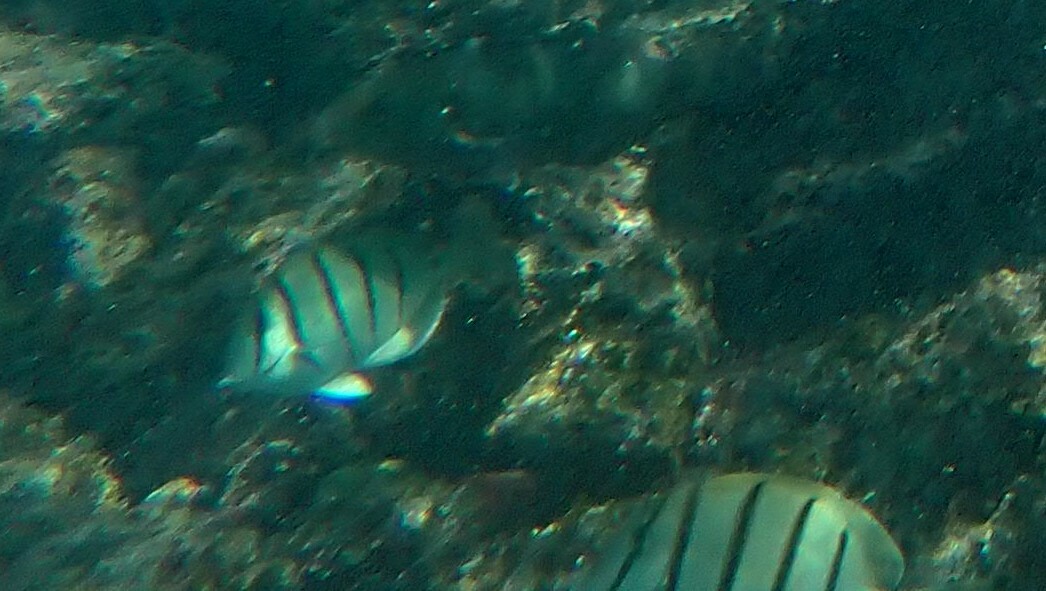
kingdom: Animalia
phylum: Chordata
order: Perciformes
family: Acanthuridae
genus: Acanthurus
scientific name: Acanthurus triostegus
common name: Convict surgeonfish
